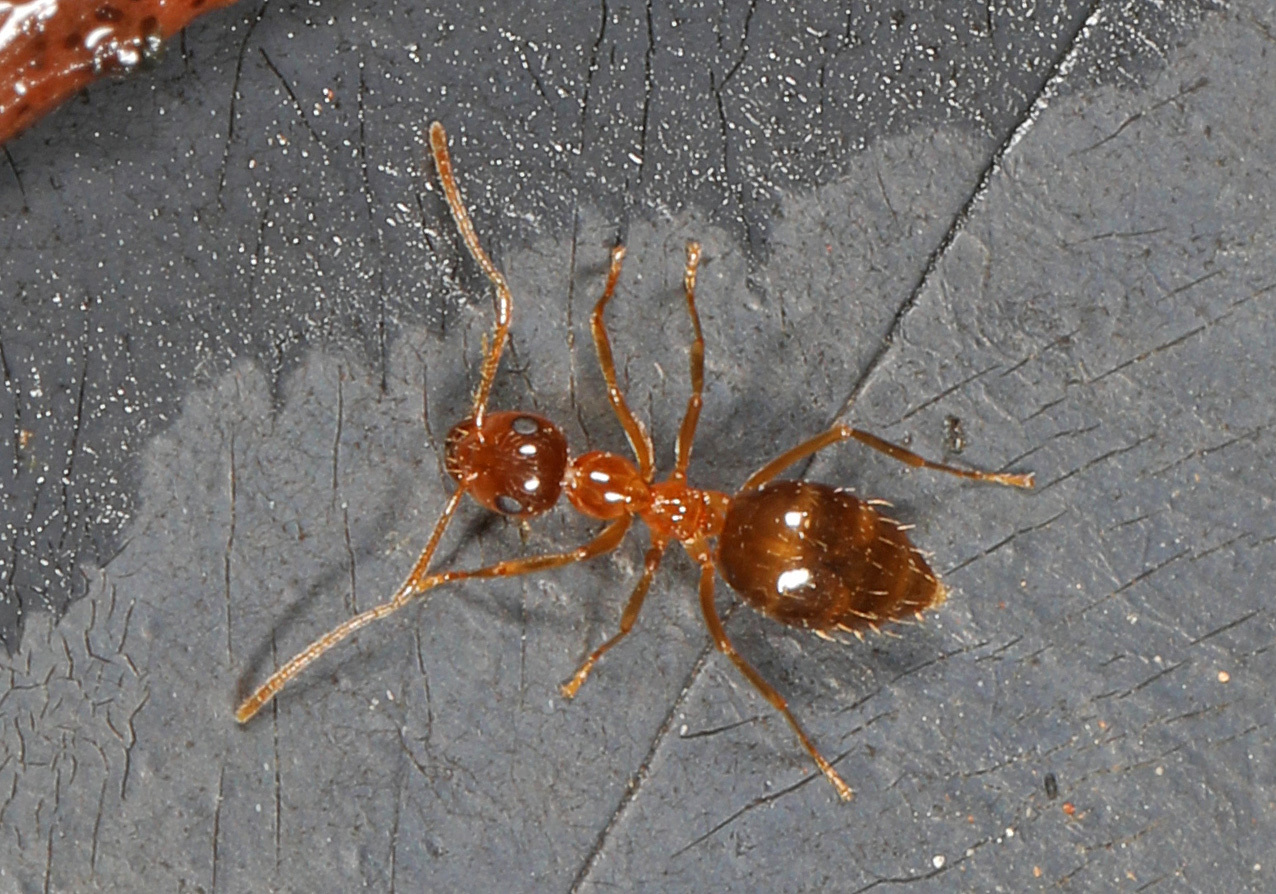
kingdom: Animalia
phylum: Arthropoda
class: Insecta
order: Hymenoptera
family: Formicidae
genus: Prenolepis
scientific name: Prenolepis imparis
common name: Small honey ant
